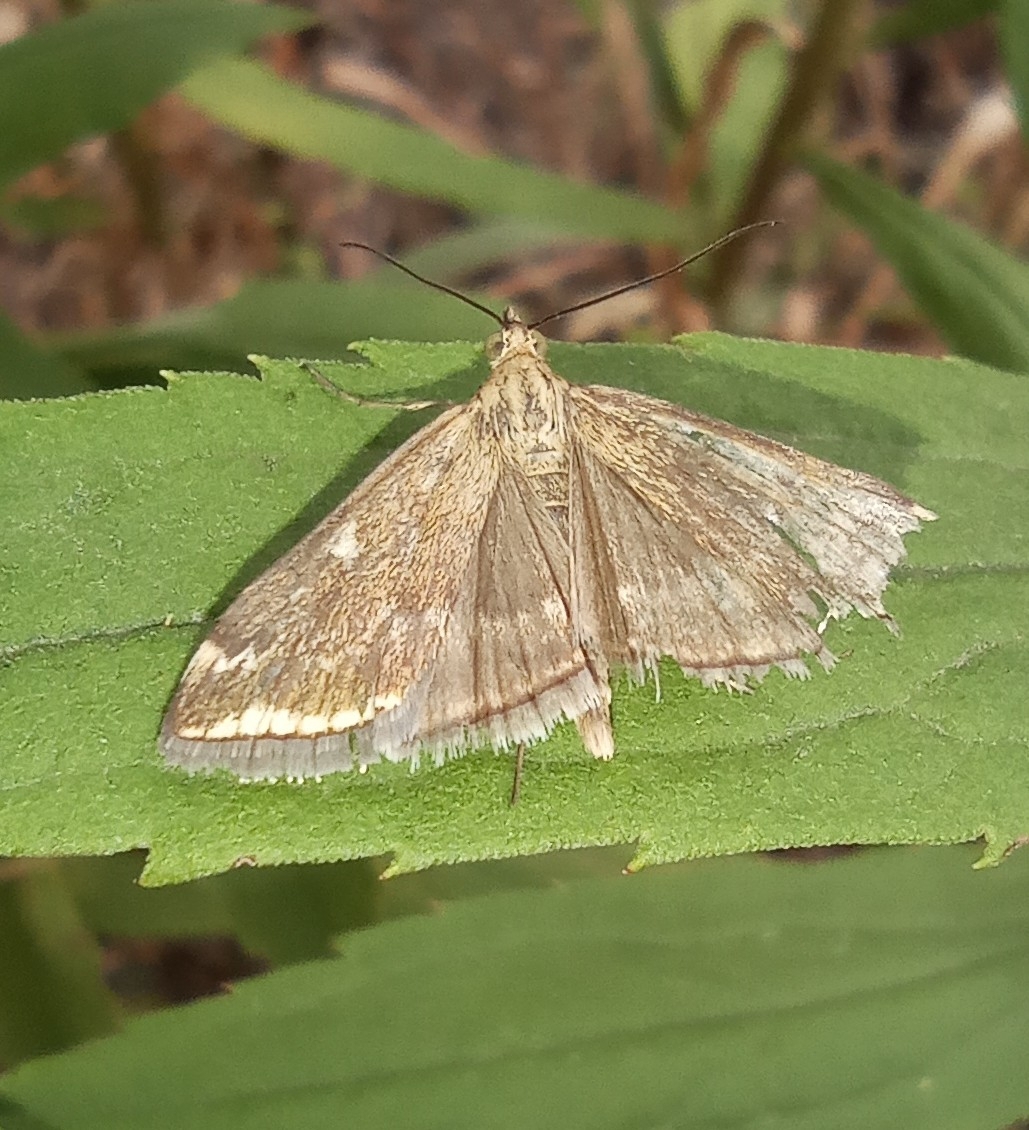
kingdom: Animalia
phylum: Arthropoda
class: Insecta
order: Lepidoptera
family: Crambidae
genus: Loxostege
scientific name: Loxostege sticticalis
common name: Crambid moth
